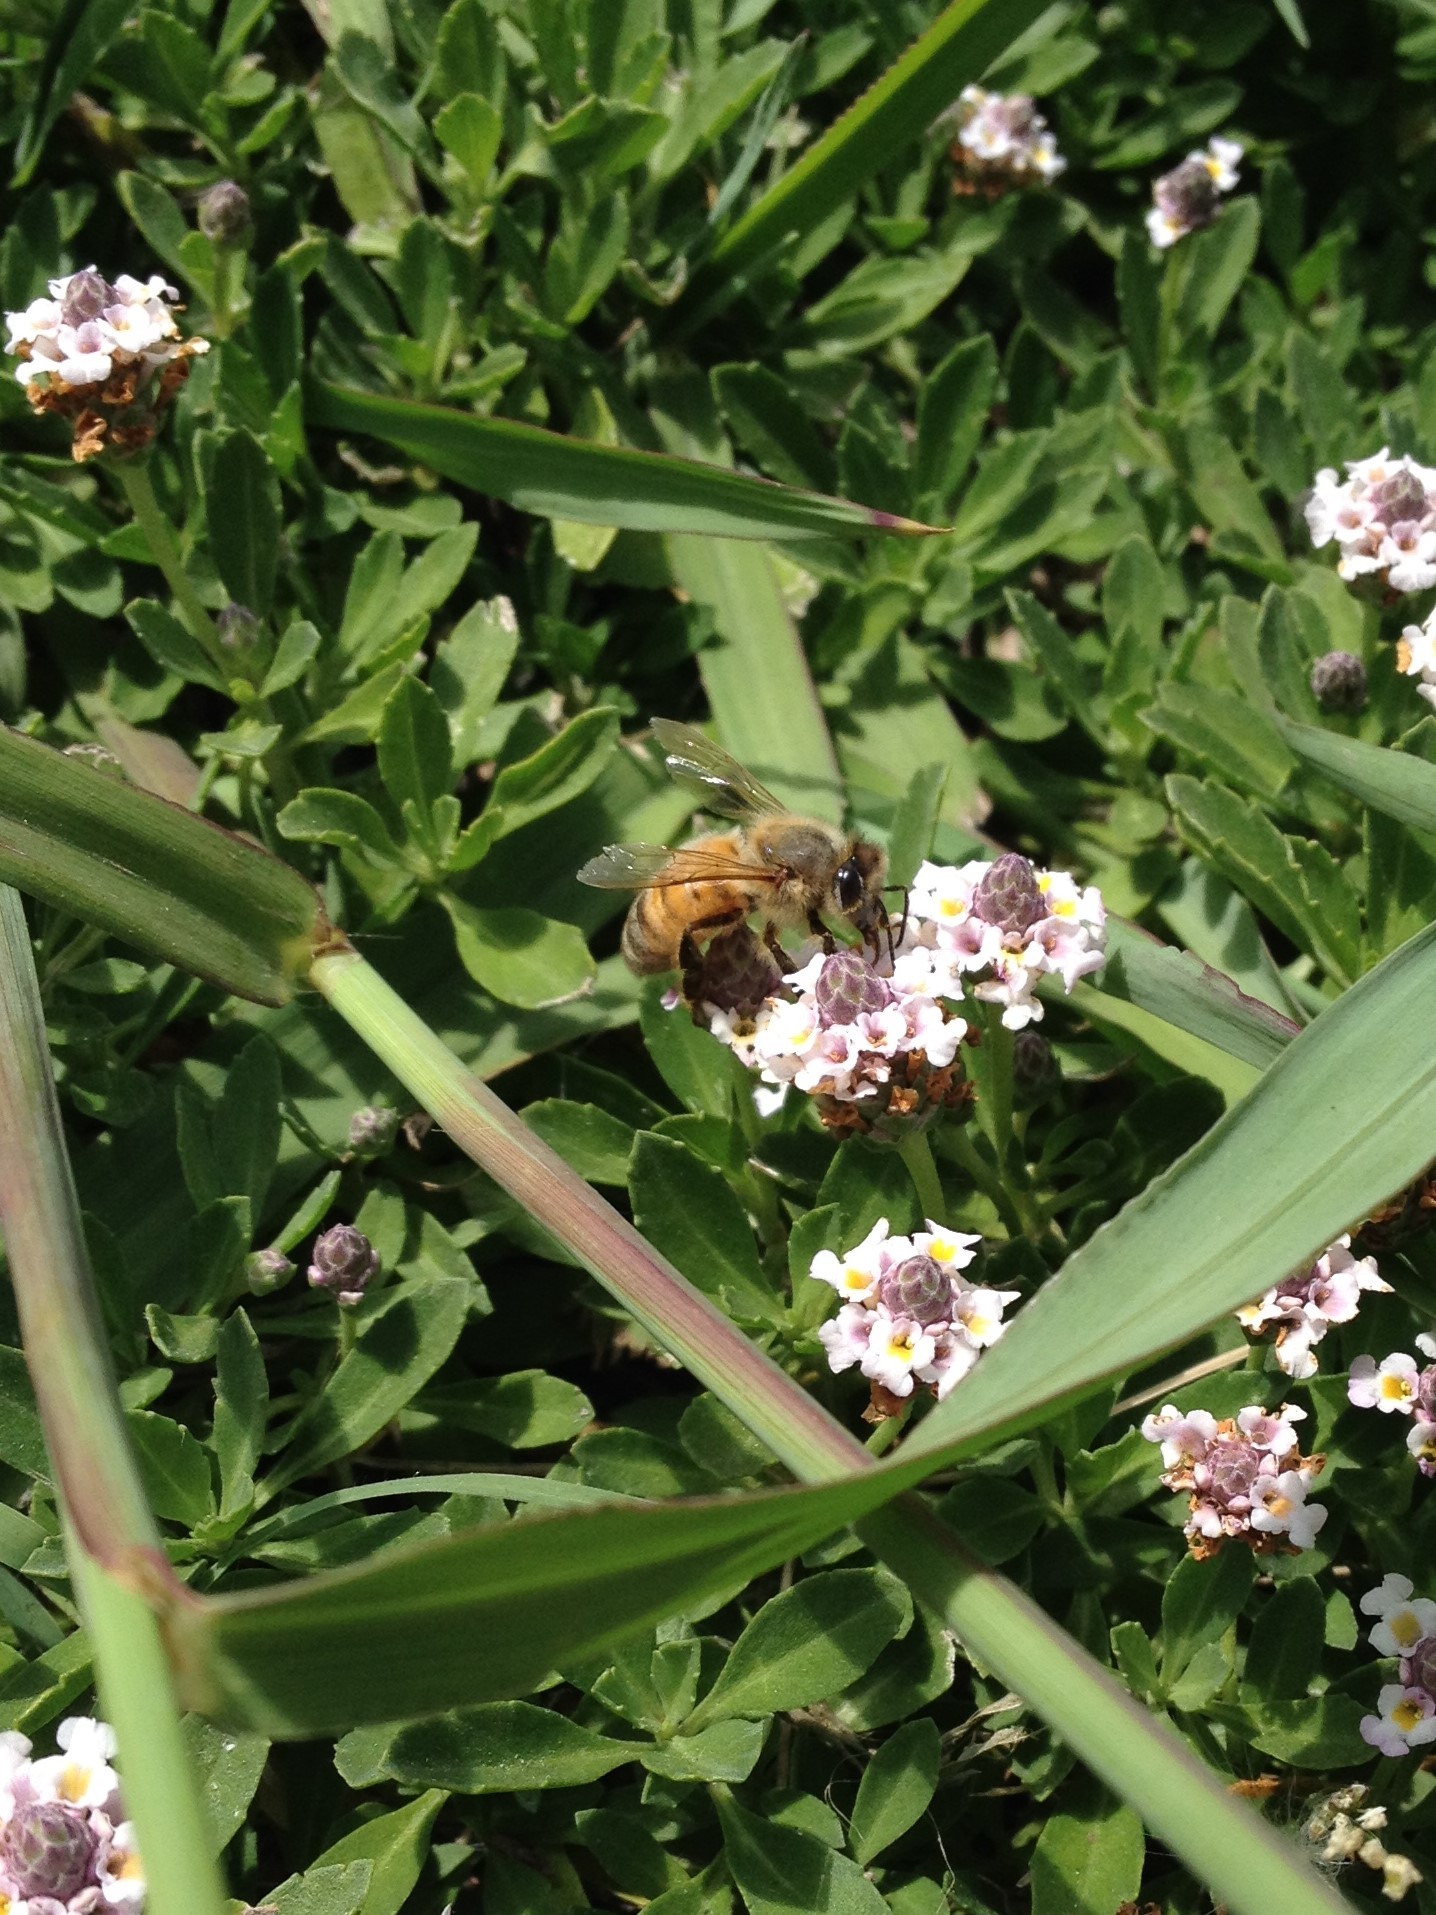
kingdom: Animalia
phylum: Arthropoda
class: Insecta
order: Hymenoptera
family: Apidae
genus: Apis
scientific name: Apis mellifera
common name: Honey bee
